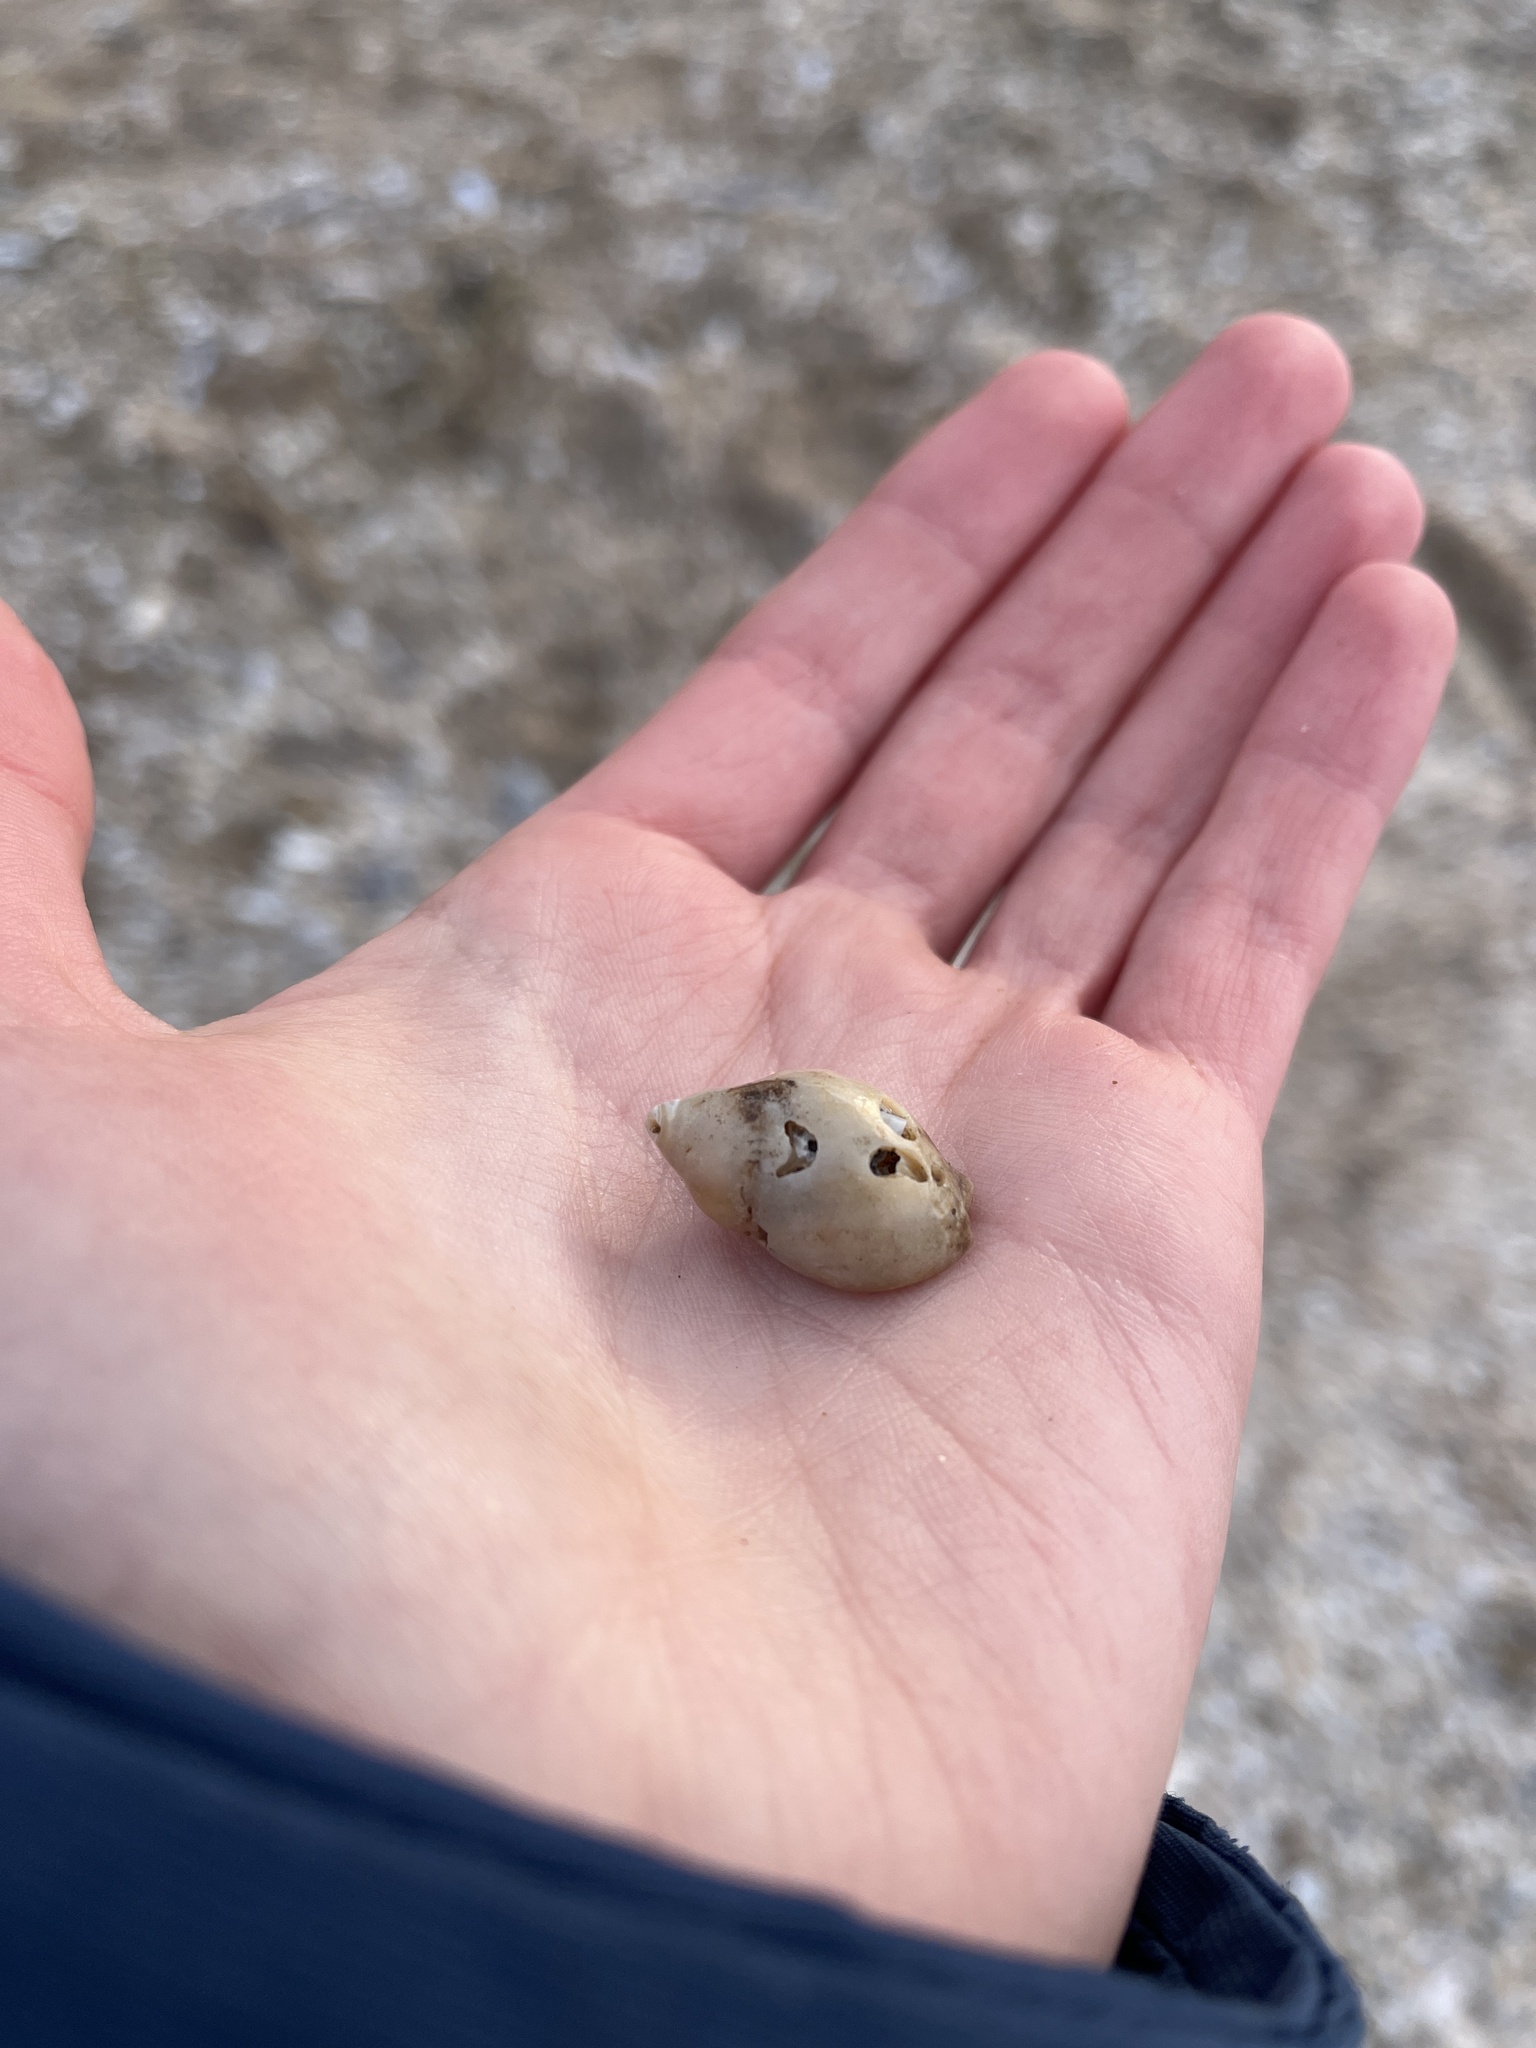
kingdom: Animalia
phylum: Mollusca
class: Gastropoda
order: Neogastropoda
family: Muricidae
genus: Nucella
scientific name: Nucella lapillus
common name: Dog whelk
